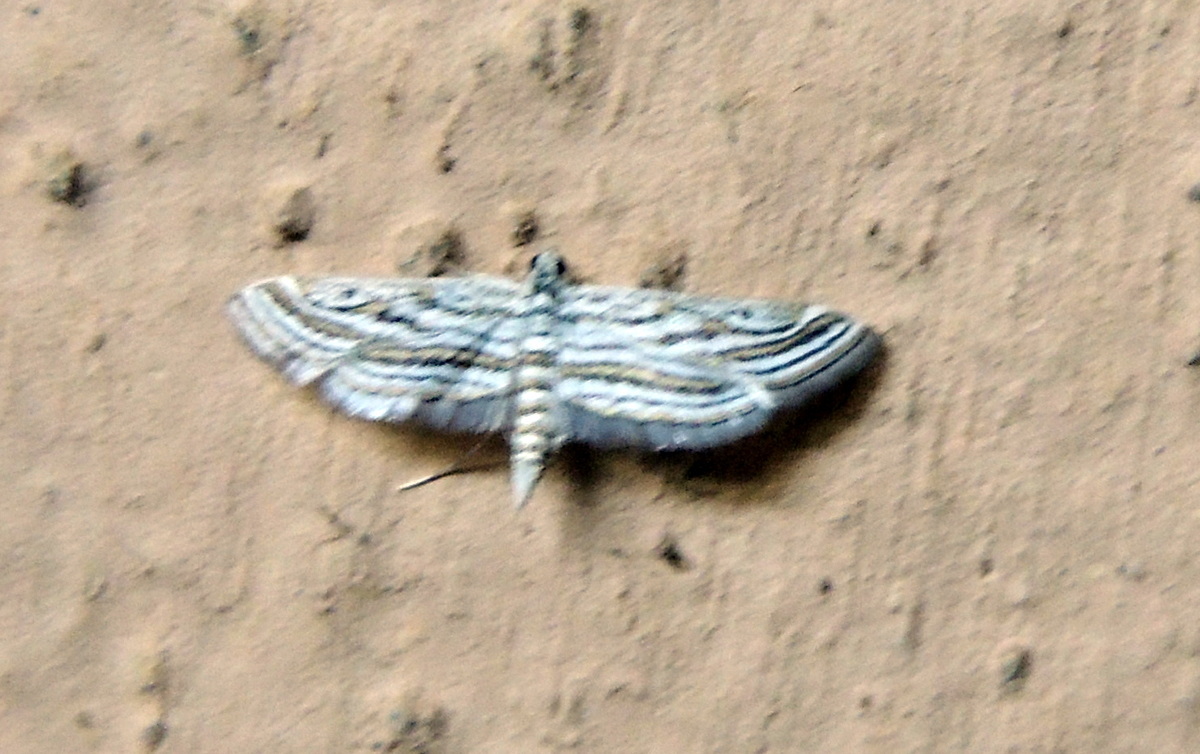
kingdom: Animalia
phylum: Arthropoda
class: Insecta
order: Lepidoptera
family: Crambidae
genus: Parapoynx
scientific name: Parapoynx fluctuosalis
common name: Moth
